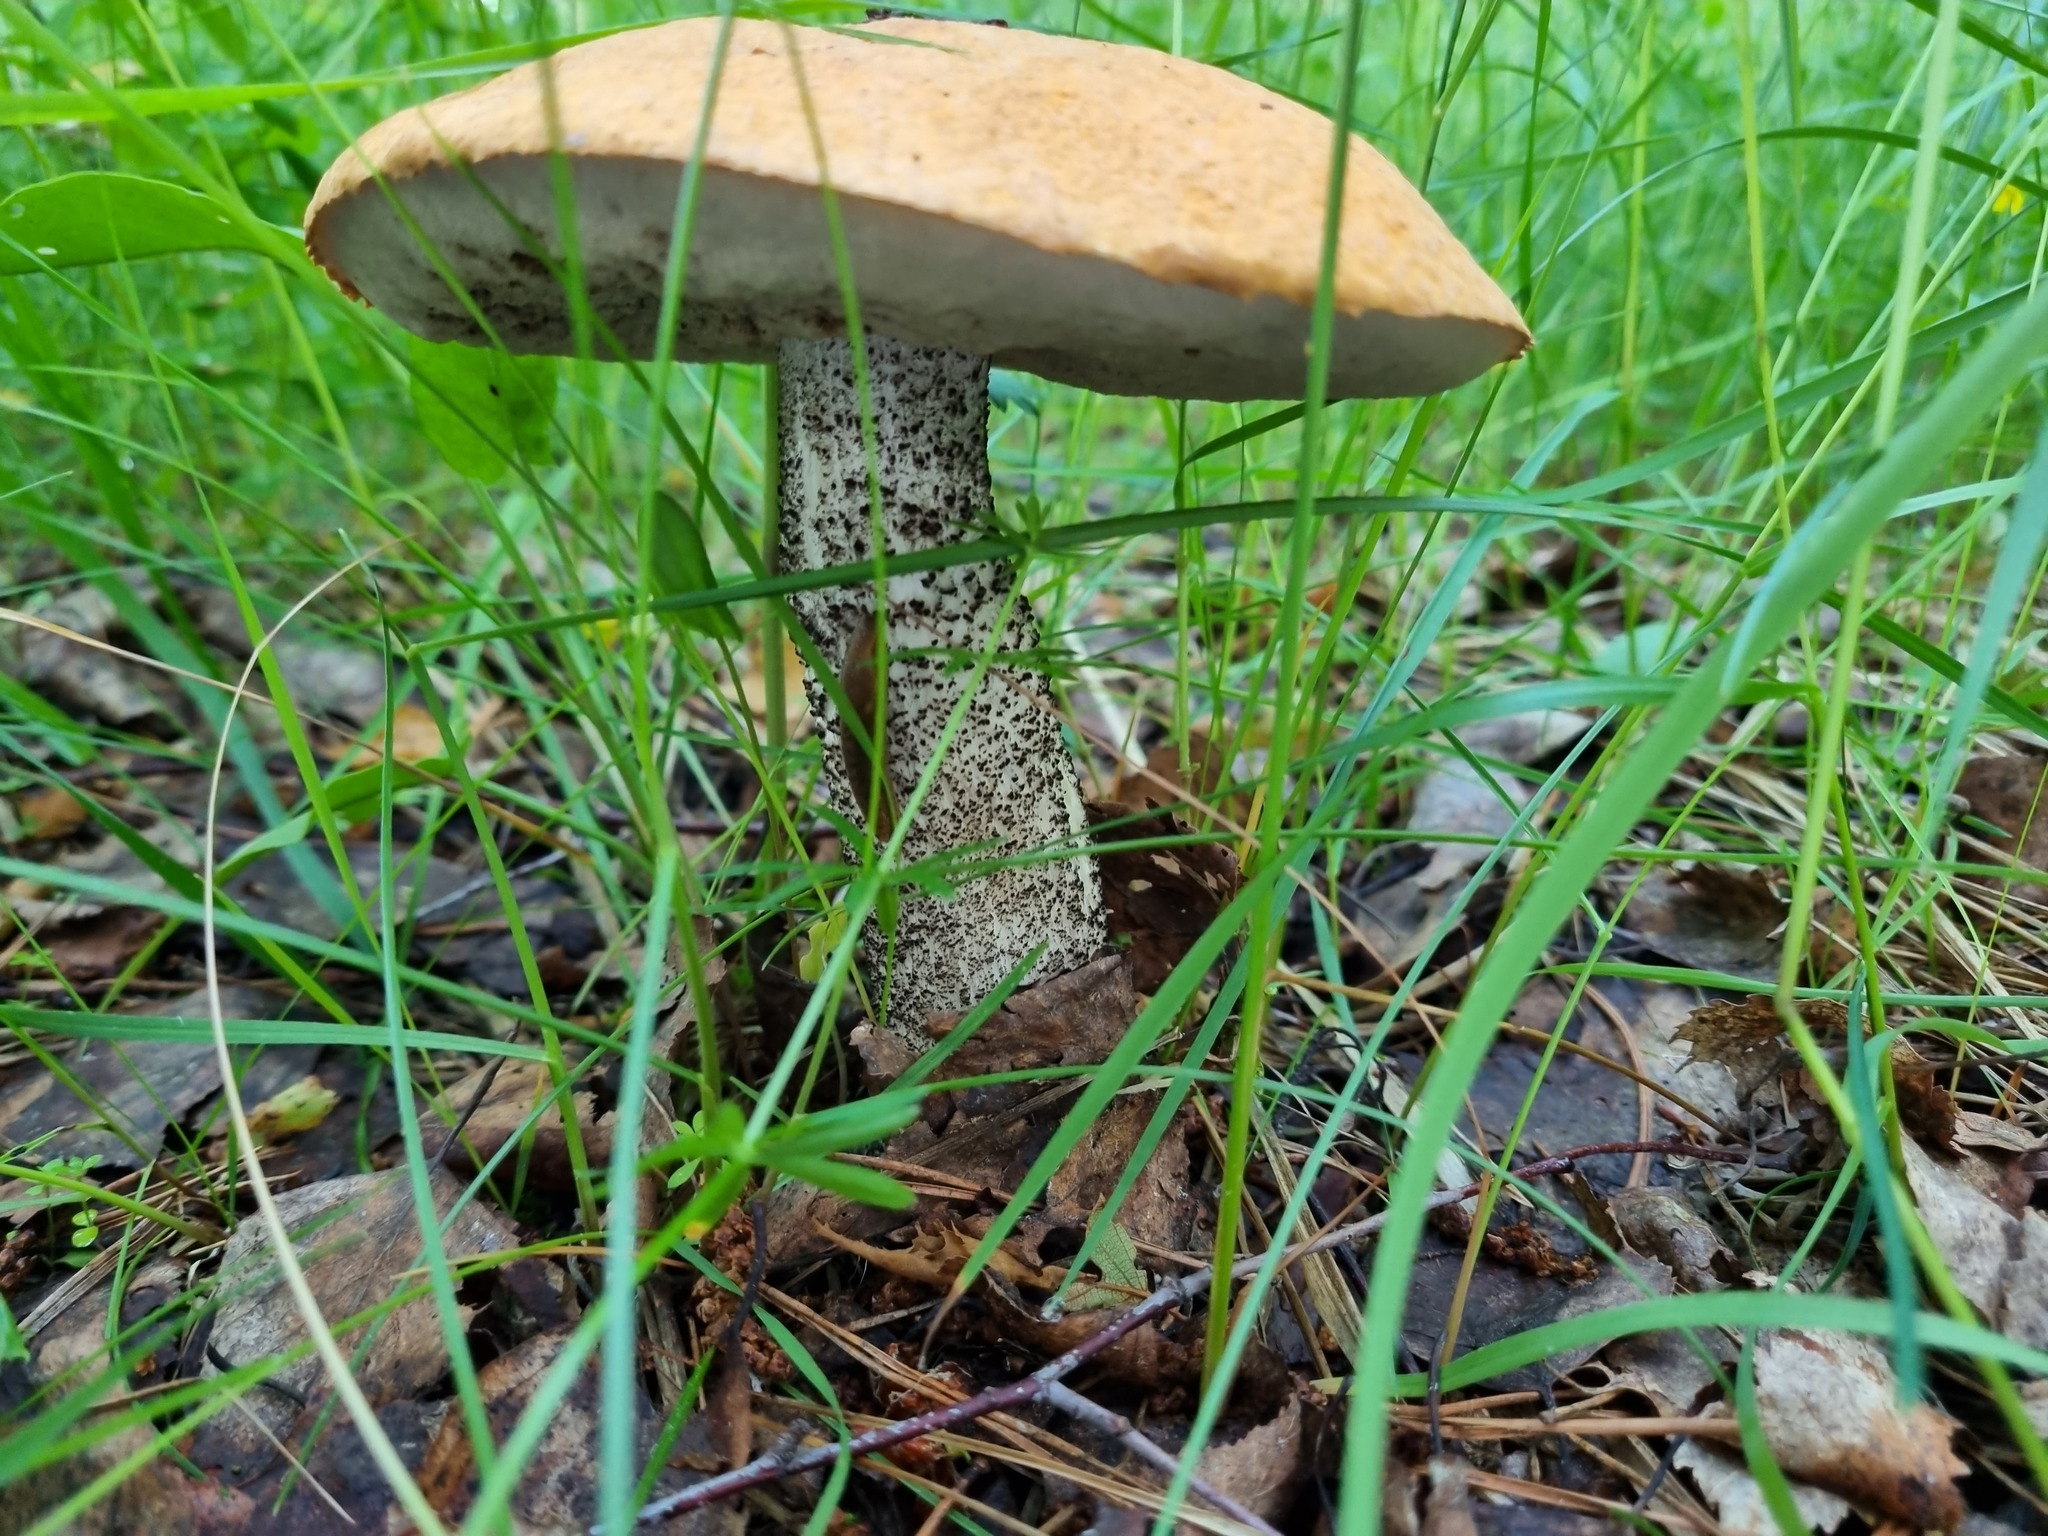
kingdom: Fungi
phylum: Basidiomycota
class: Agaricomycetes
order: Boletales
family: Boletaceae
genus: Leccinum
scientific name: Leccinum versipelle
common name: Orange birch bolete
